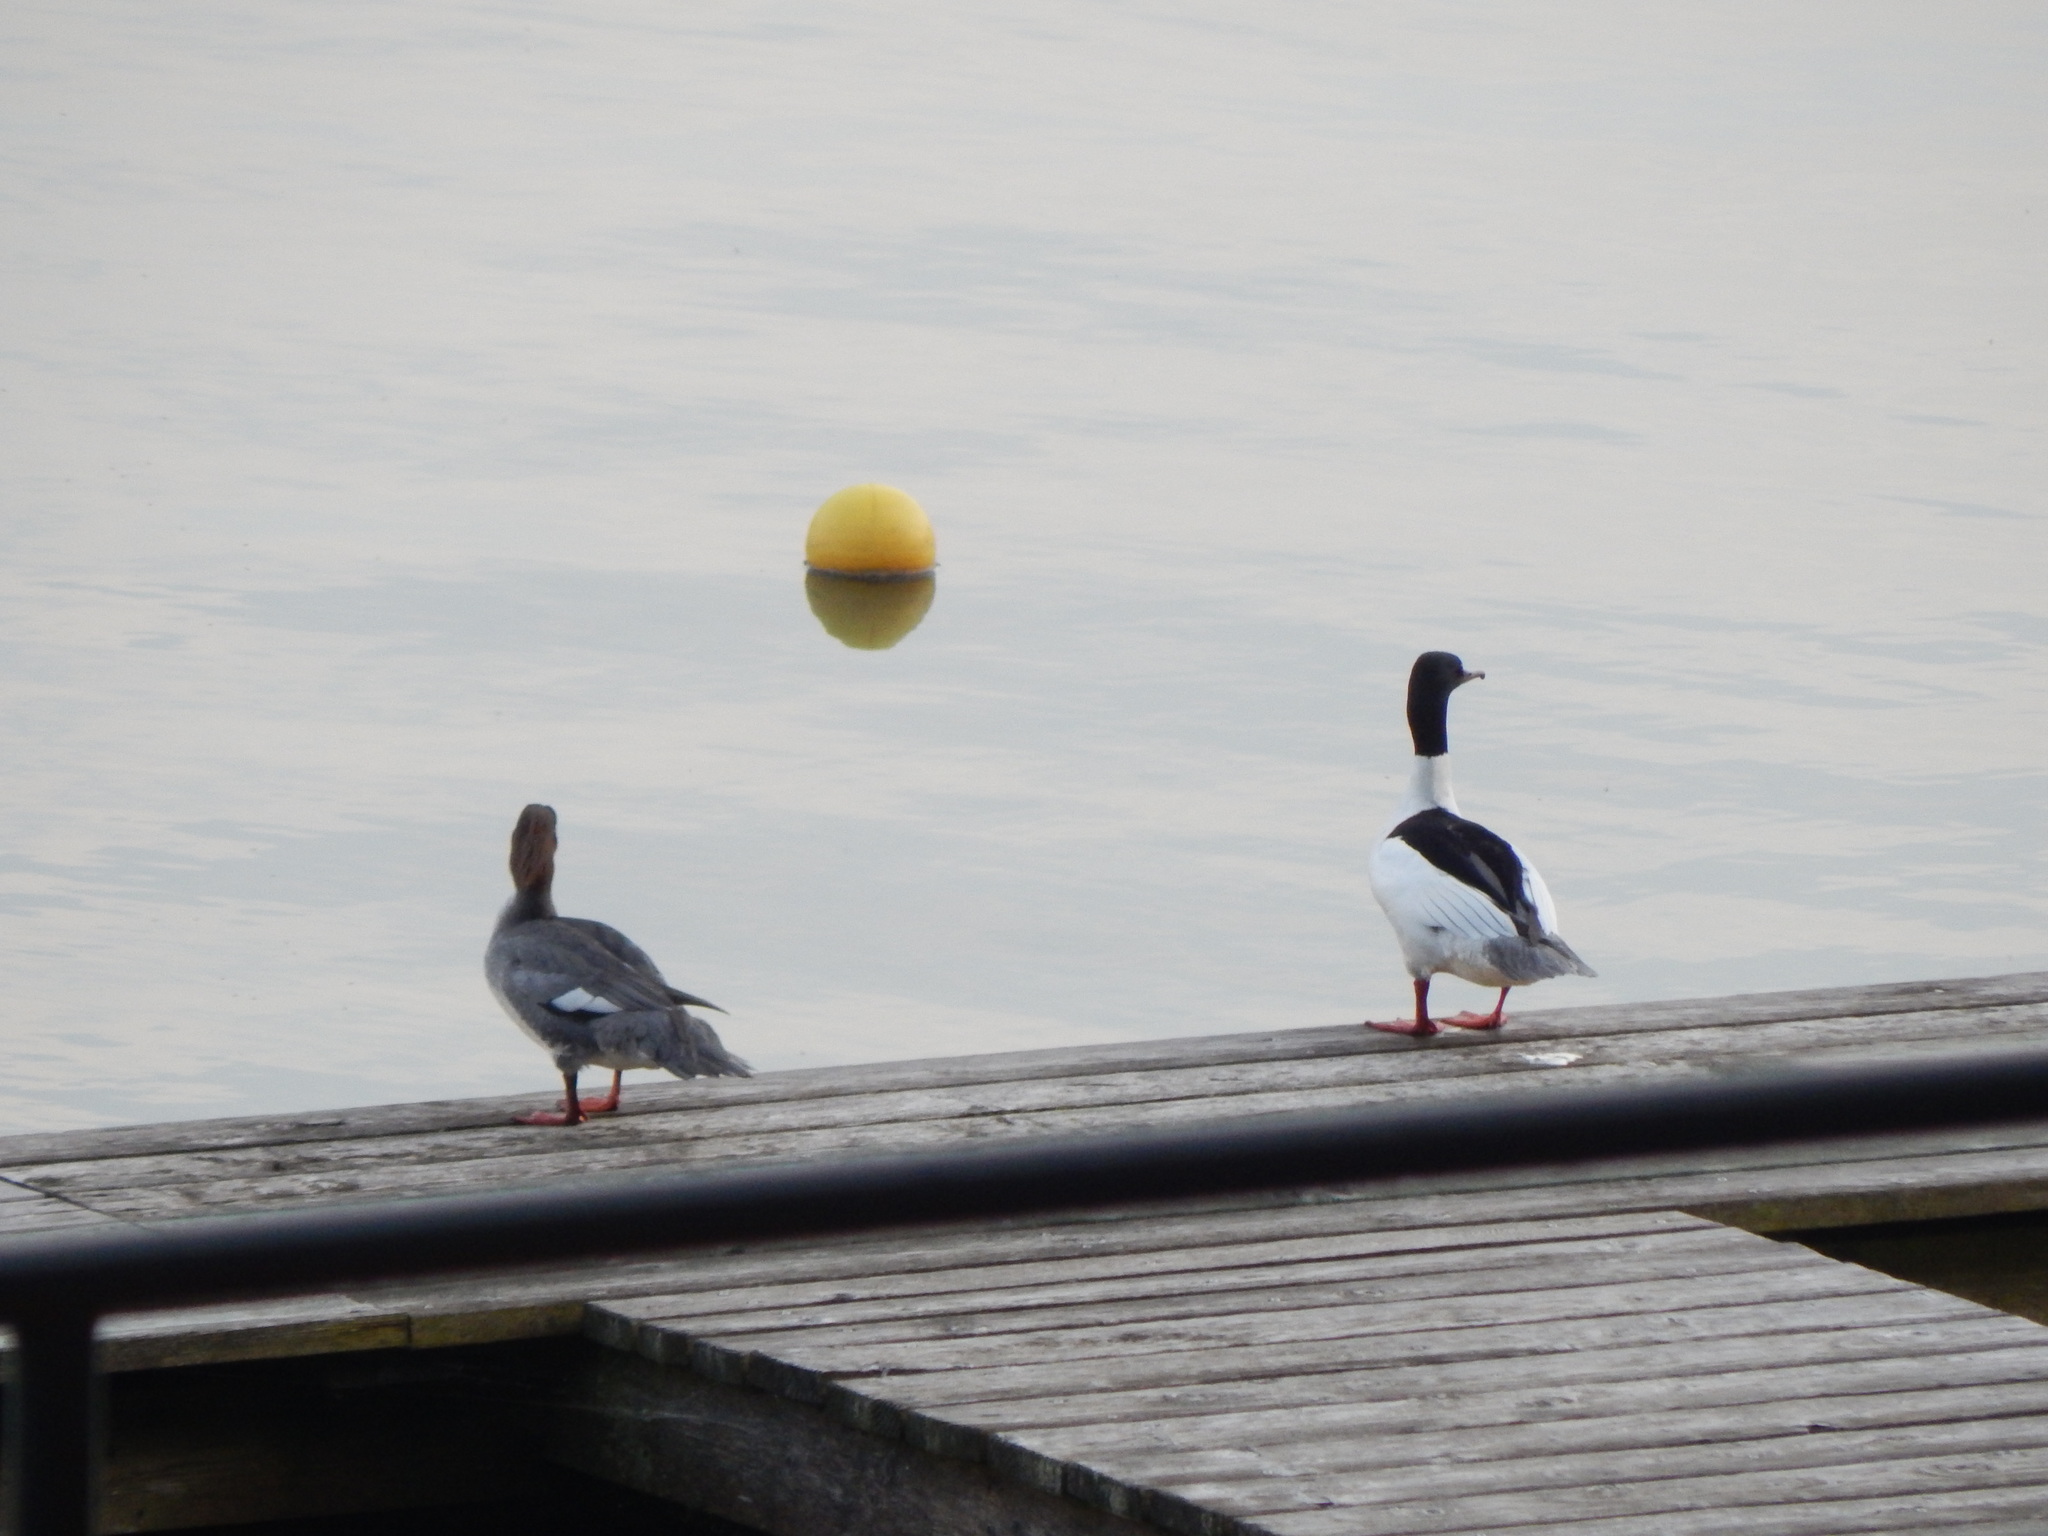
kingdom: Animalia
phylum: Chordata
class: Aves
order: Anseriformes
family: Anatidae
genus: Mergus
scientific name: Mergus merganser
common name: Common merganser
